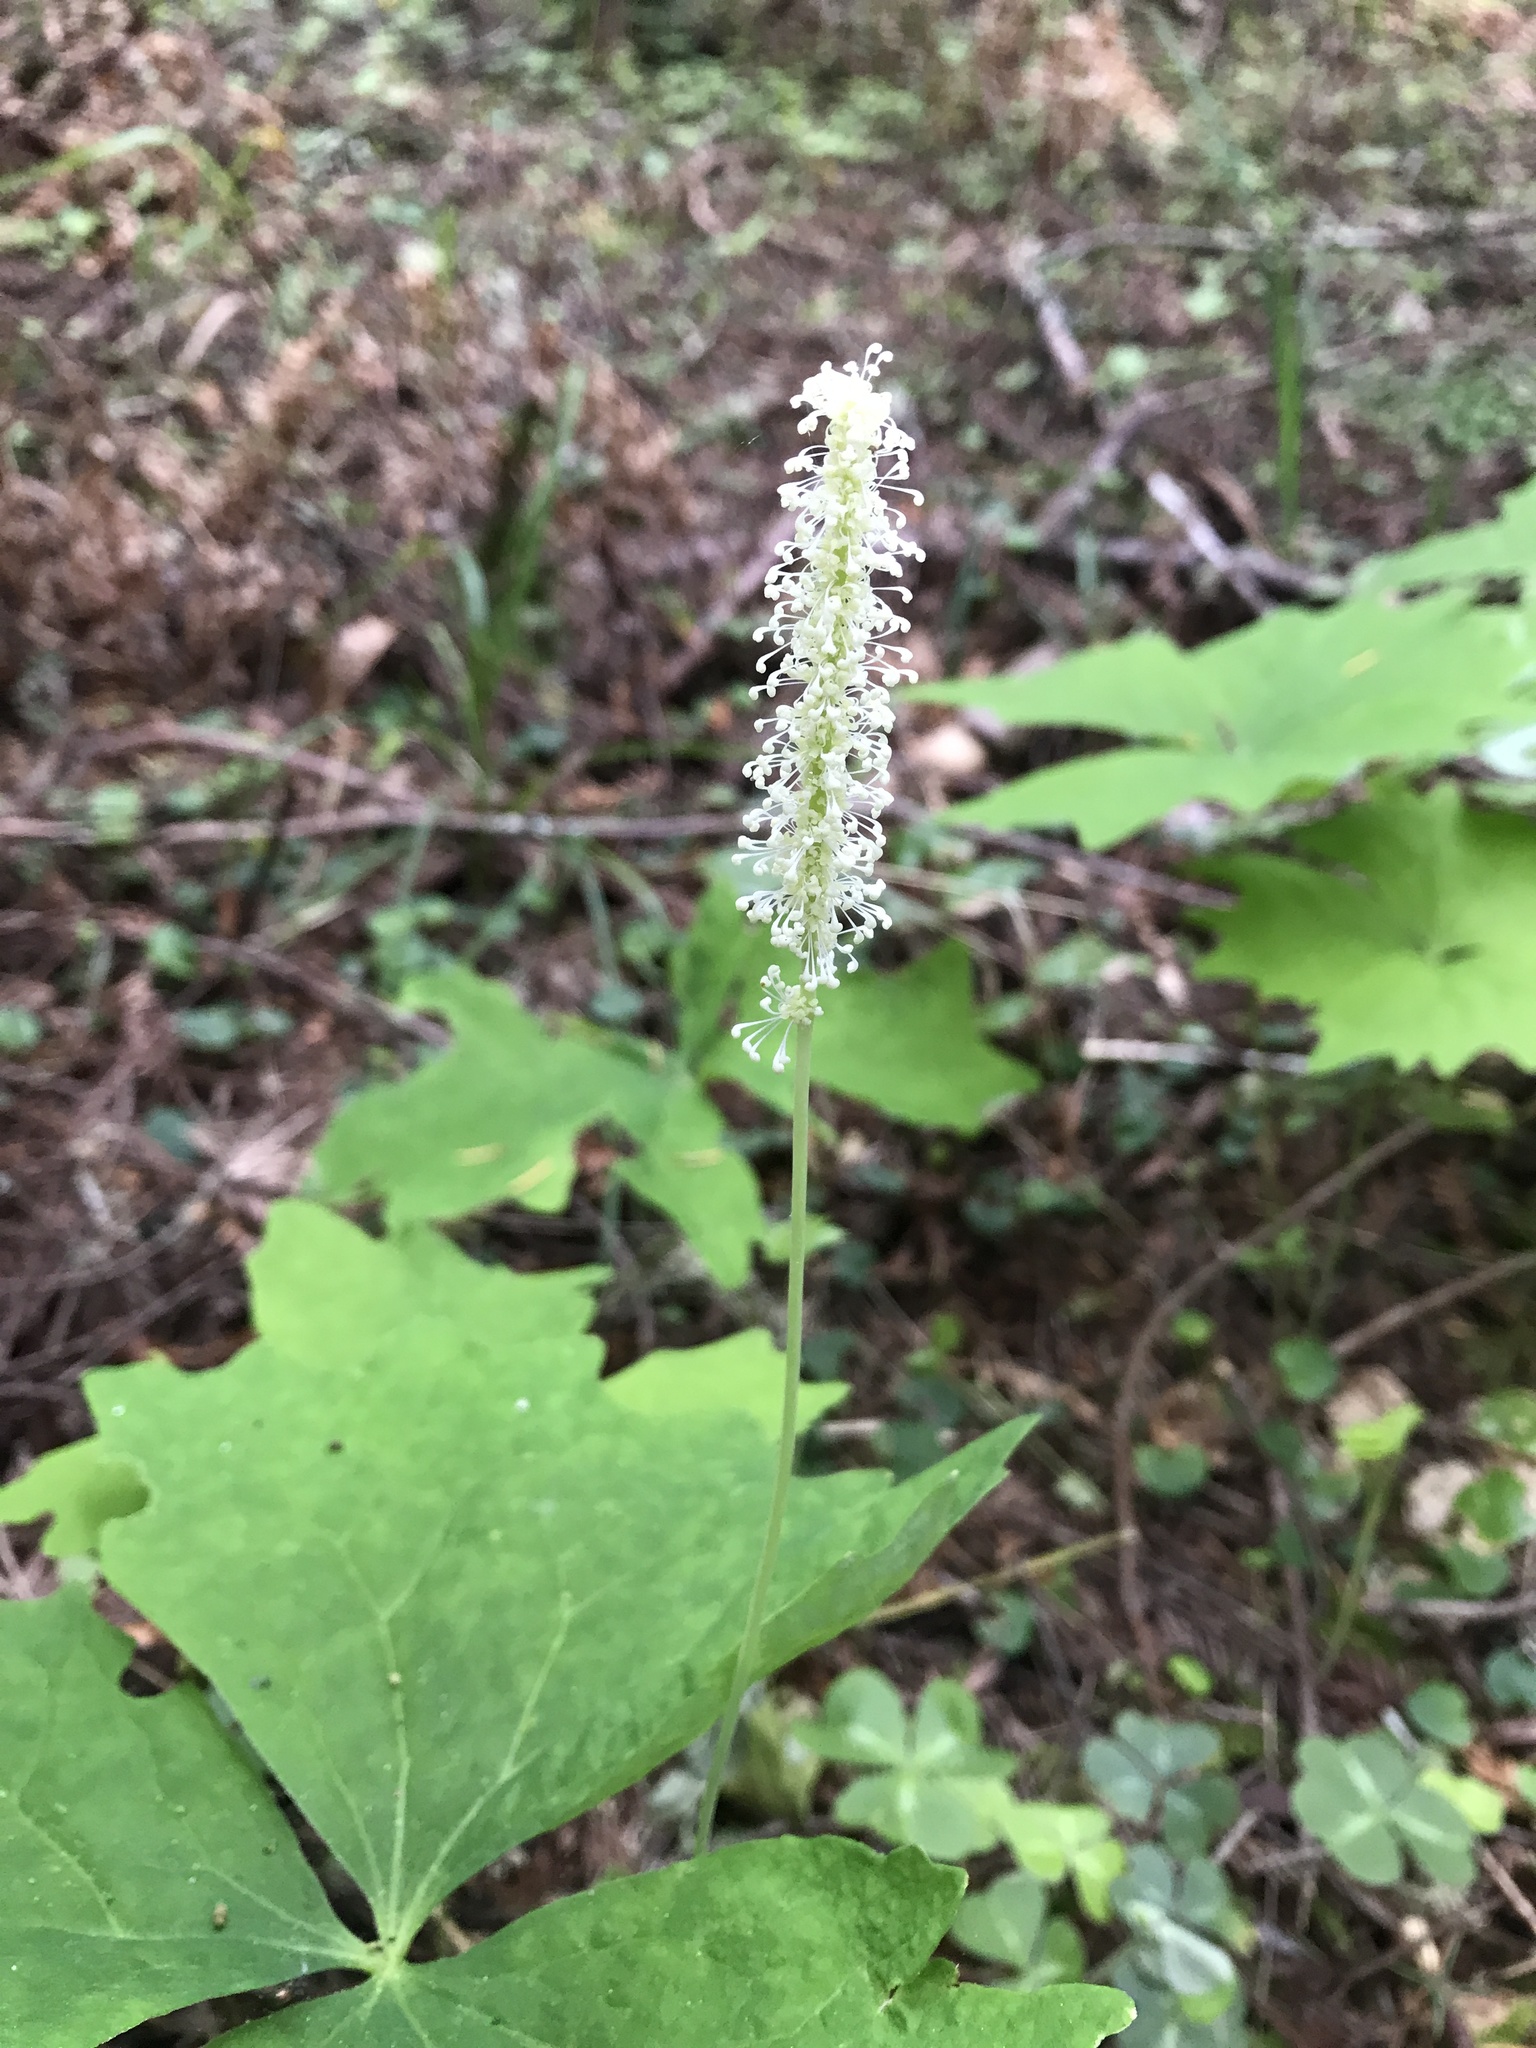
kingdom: Plantae
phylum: Tracheophyta
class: Magnoliopsida
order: Ranunculales
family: Berberidaceae
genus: Achlys
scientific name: Achlys triphylla
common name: Vanilla-leaf
